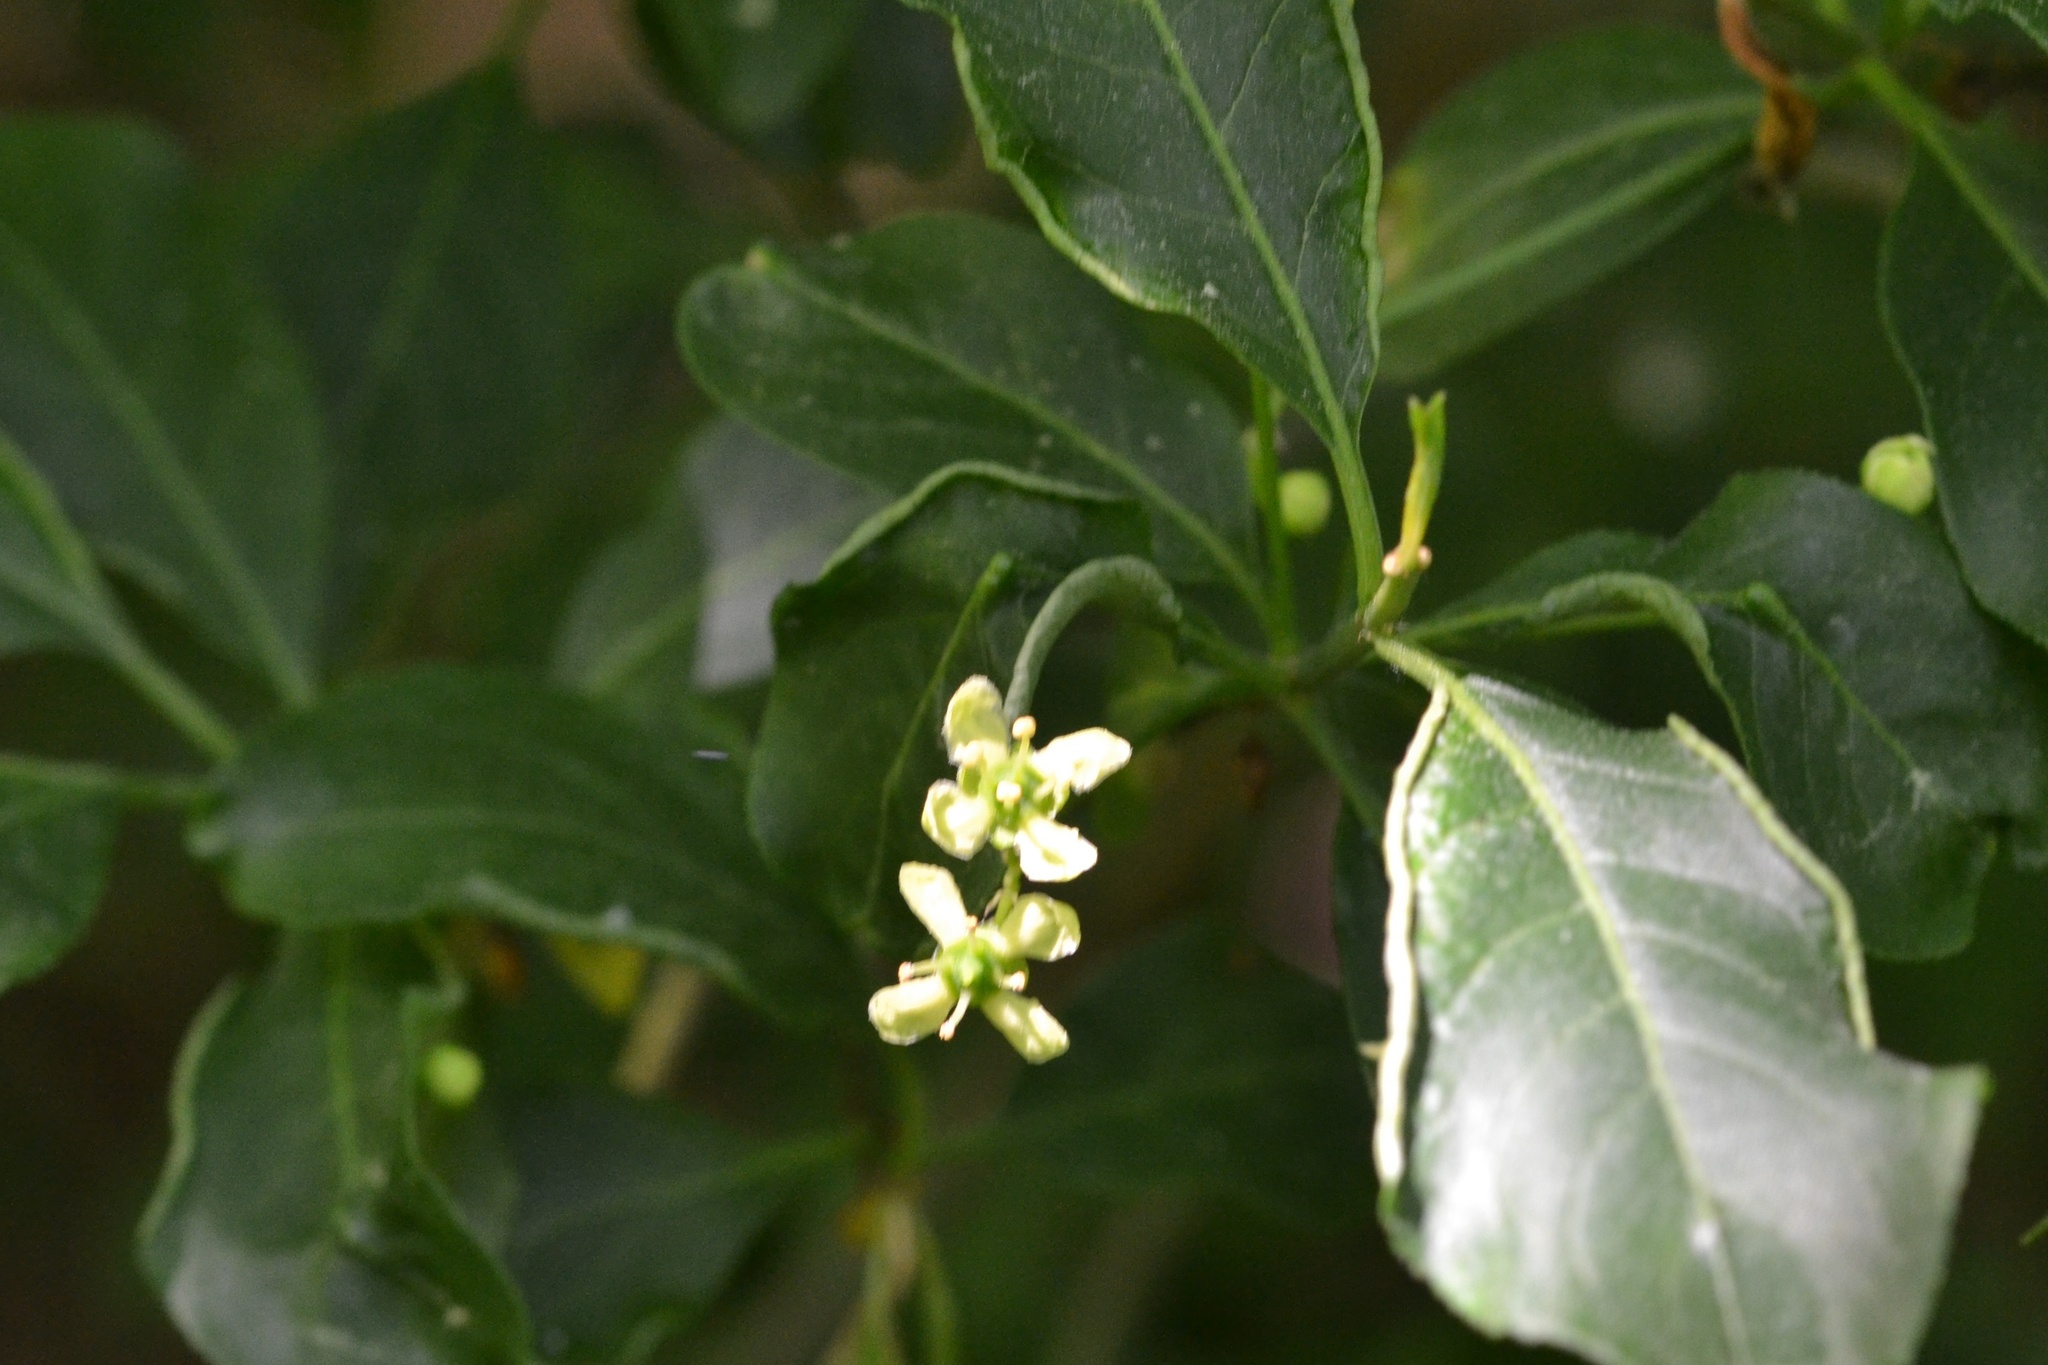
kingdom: Plantae
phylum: Tracheophyta
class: Magnoliopsida
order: Celastrales
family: Celastraceae
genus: Euonymus
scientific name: Euonymus europaeus
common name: Spindle
